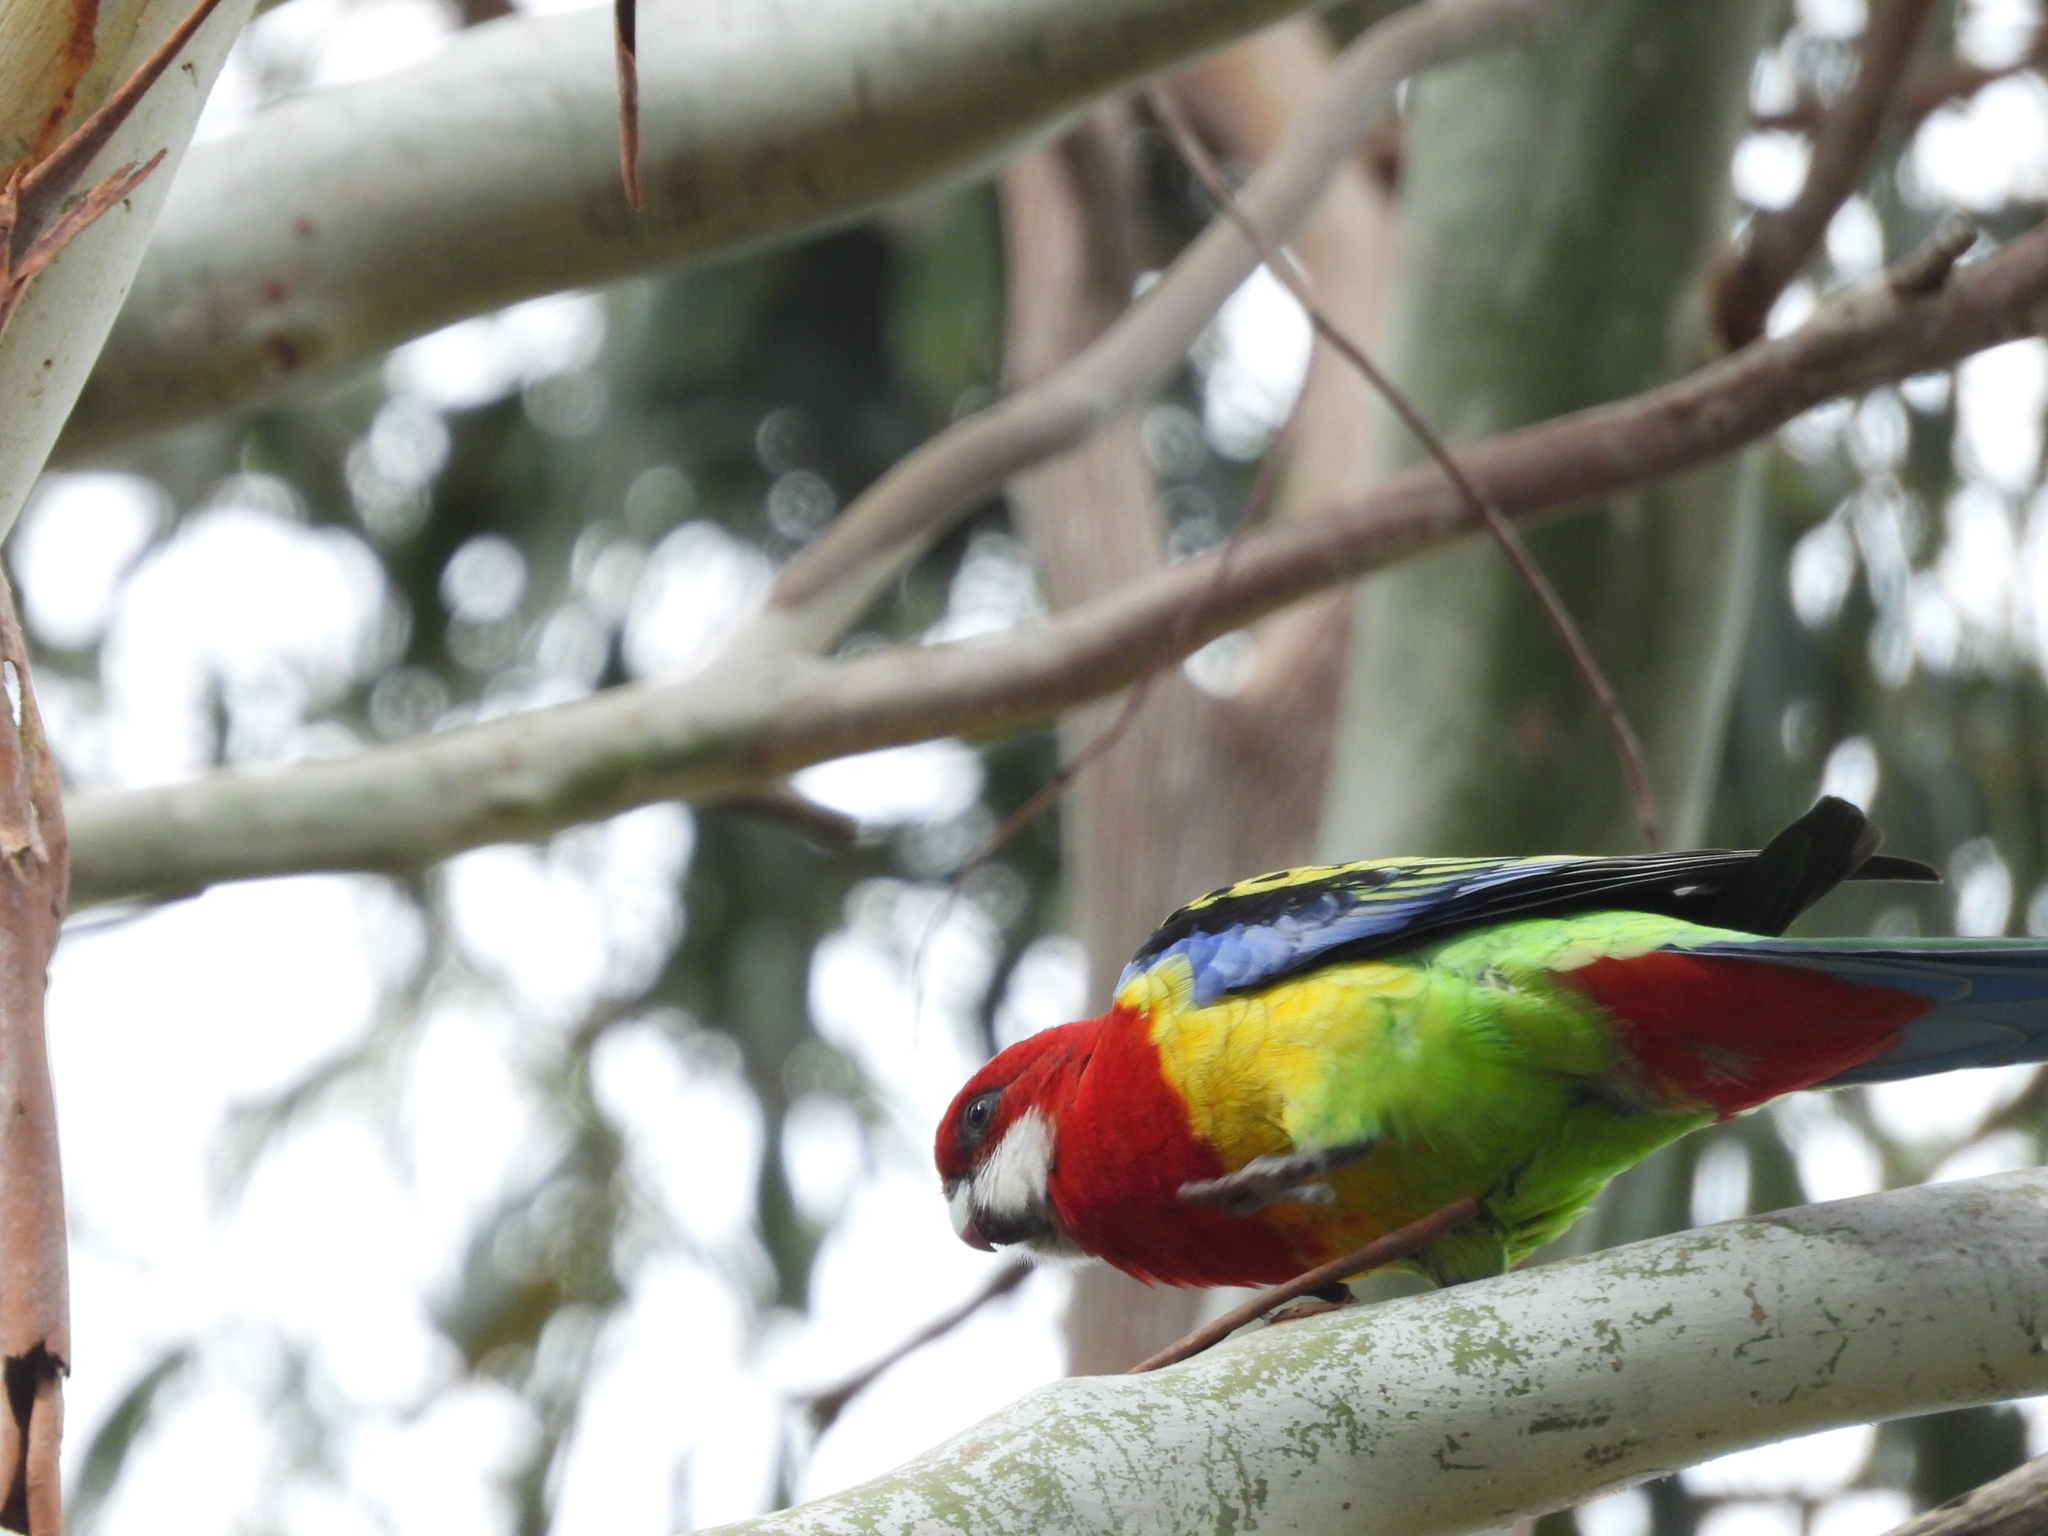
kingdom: Animalia
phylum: Chordata
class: Aves
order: Psittaciformes
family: Psittacidae
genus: Platycercus
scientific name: Platycercus eximius
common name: Eastern rosella
